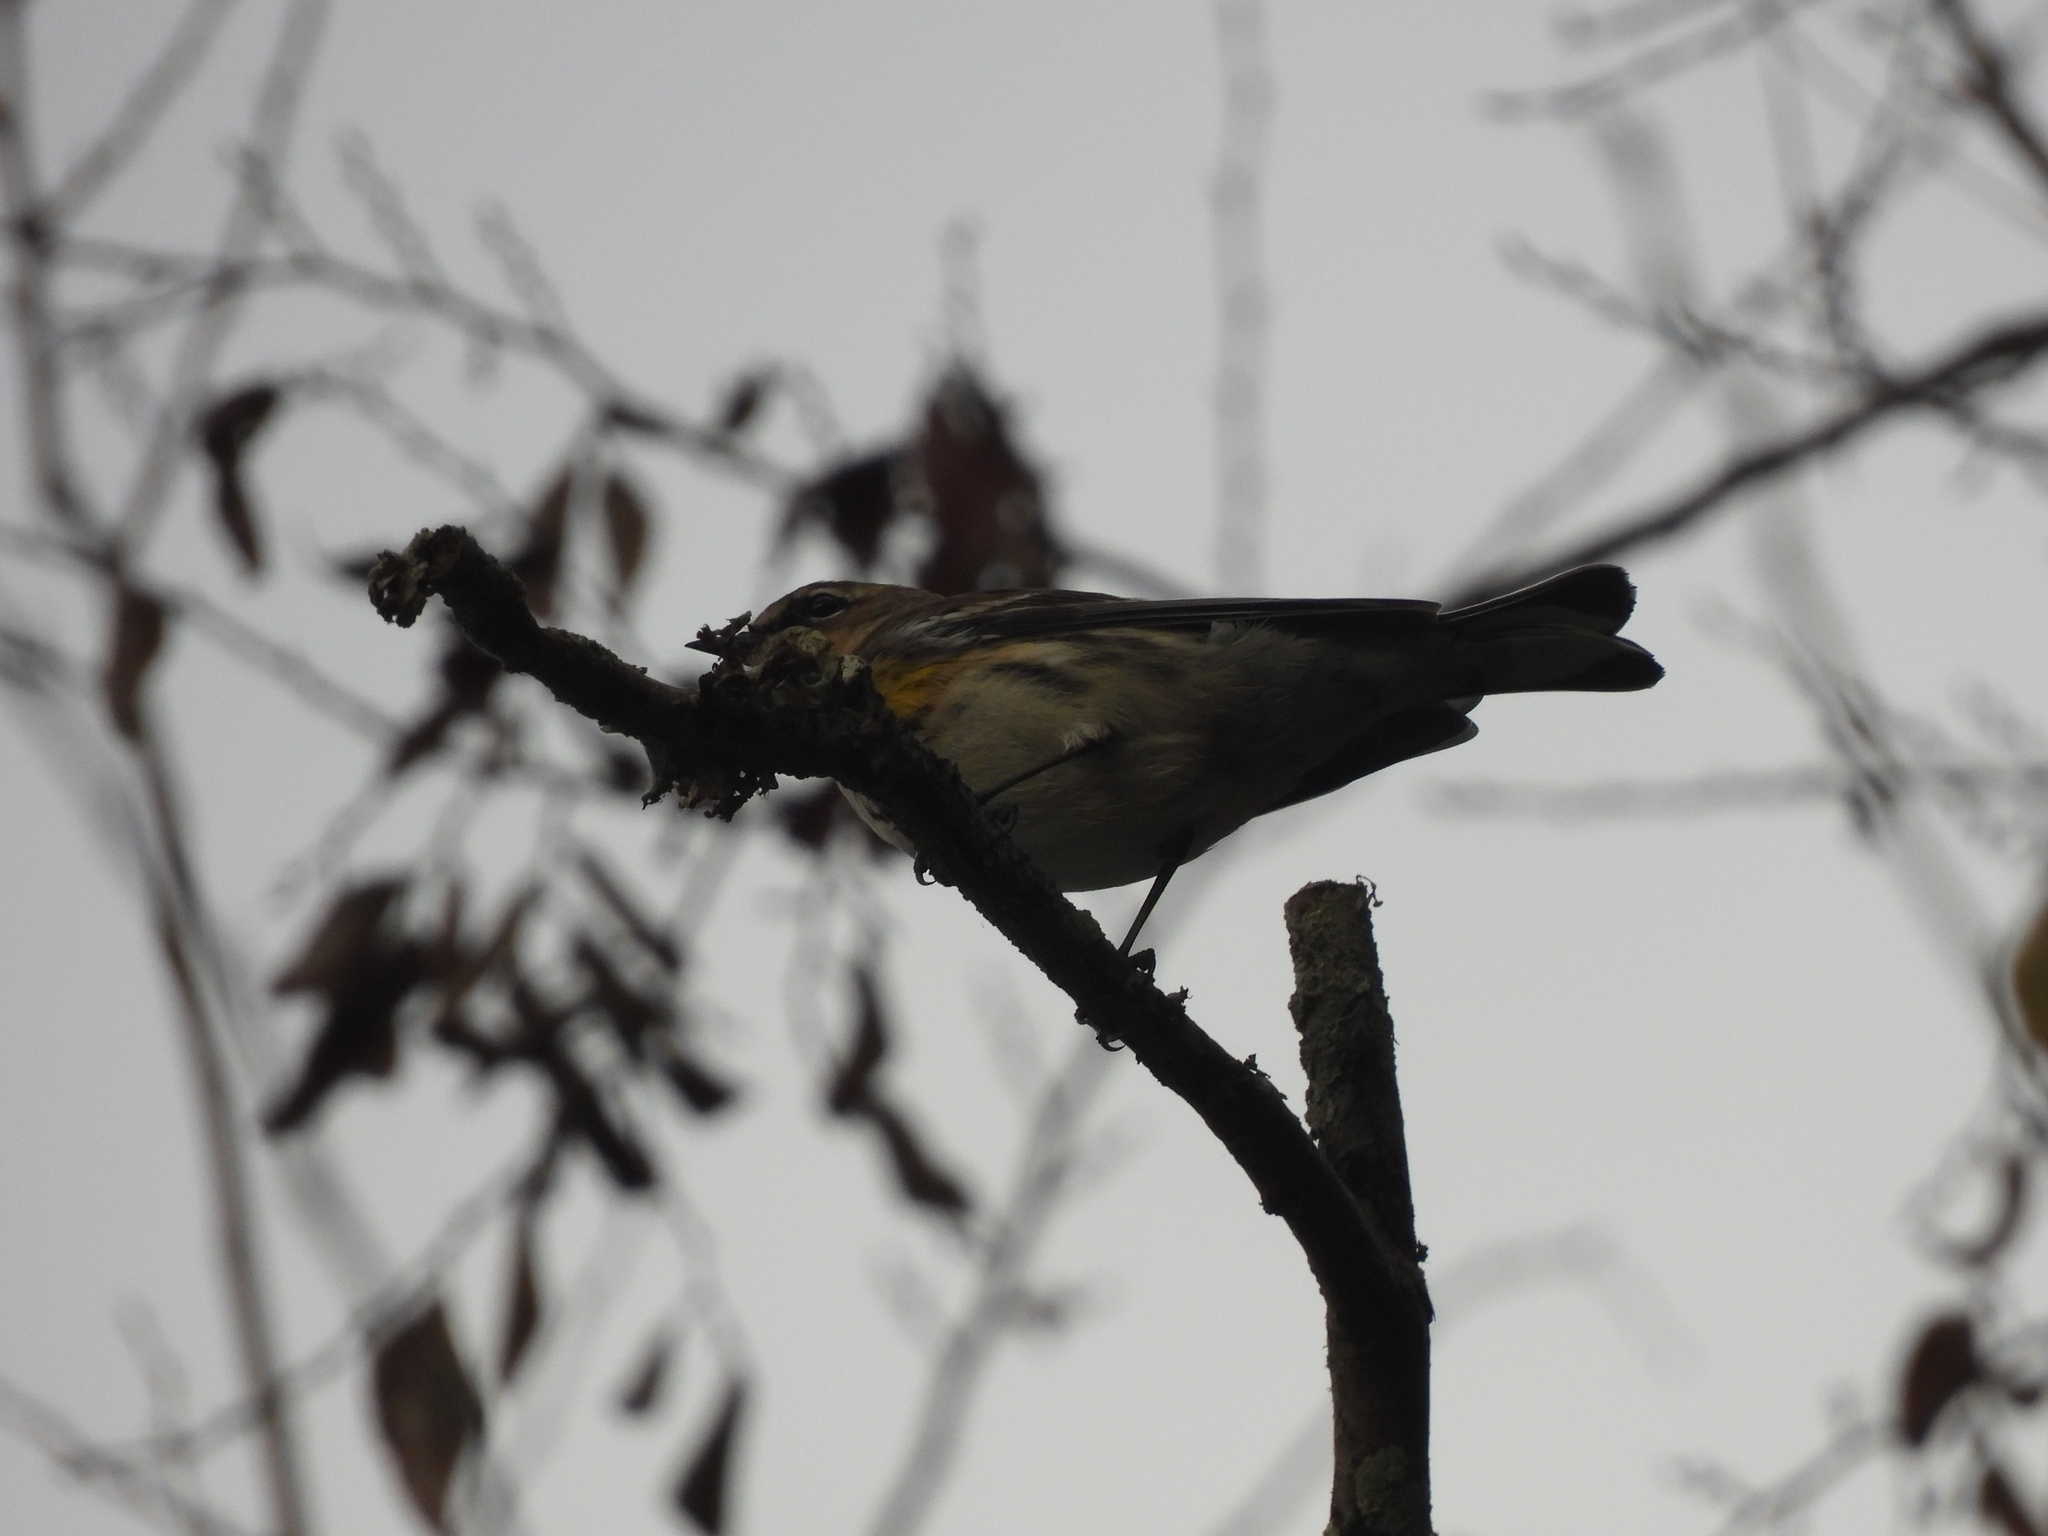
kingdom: Animalia
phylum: Chordata
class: Aves
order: Passeriformes
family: Parulidae
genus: Setophaga
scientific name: Setophaga coronata
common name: Myrtle warbler
